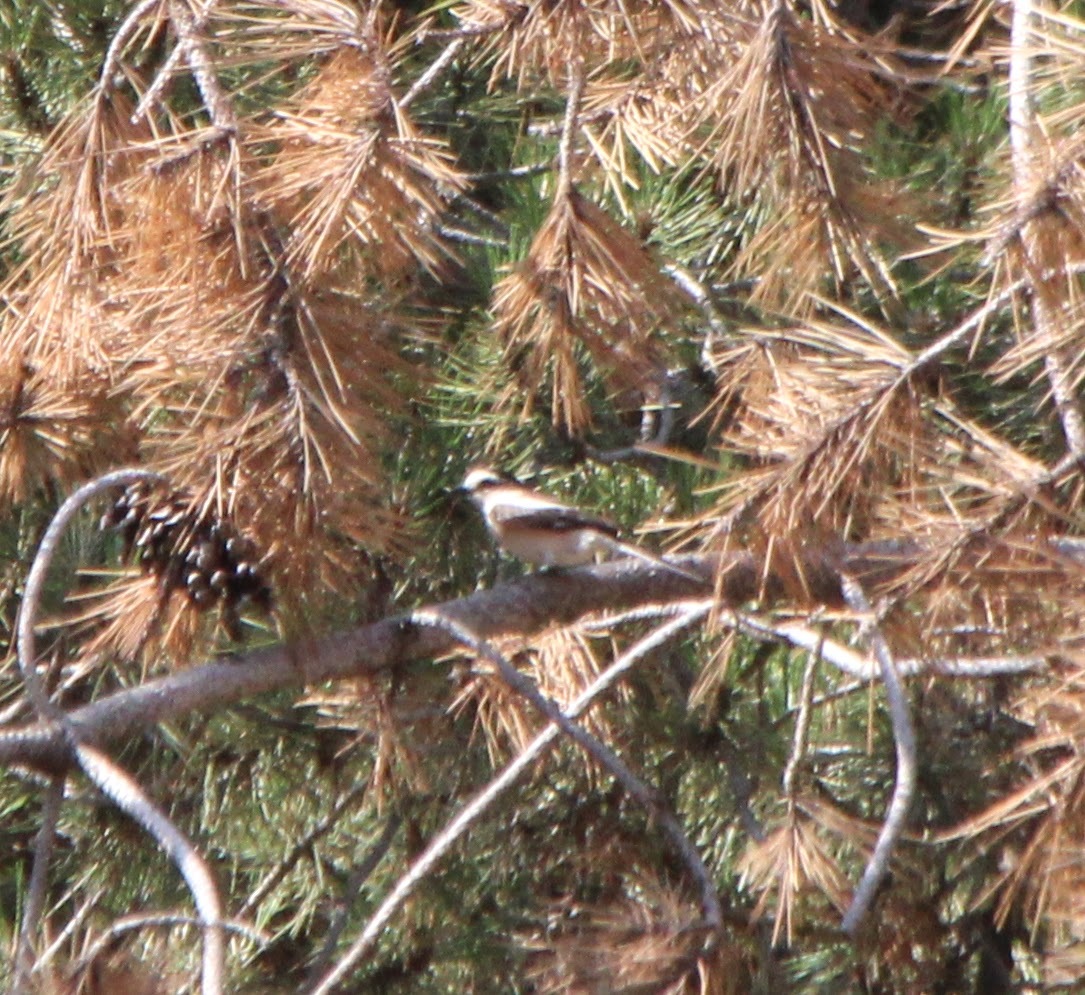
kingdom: Animalia
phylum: Chordata
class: Aves
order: Passeriformes
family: Laniidae
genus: Lanius
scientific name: Lanius nubicus
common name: Masked shrike
